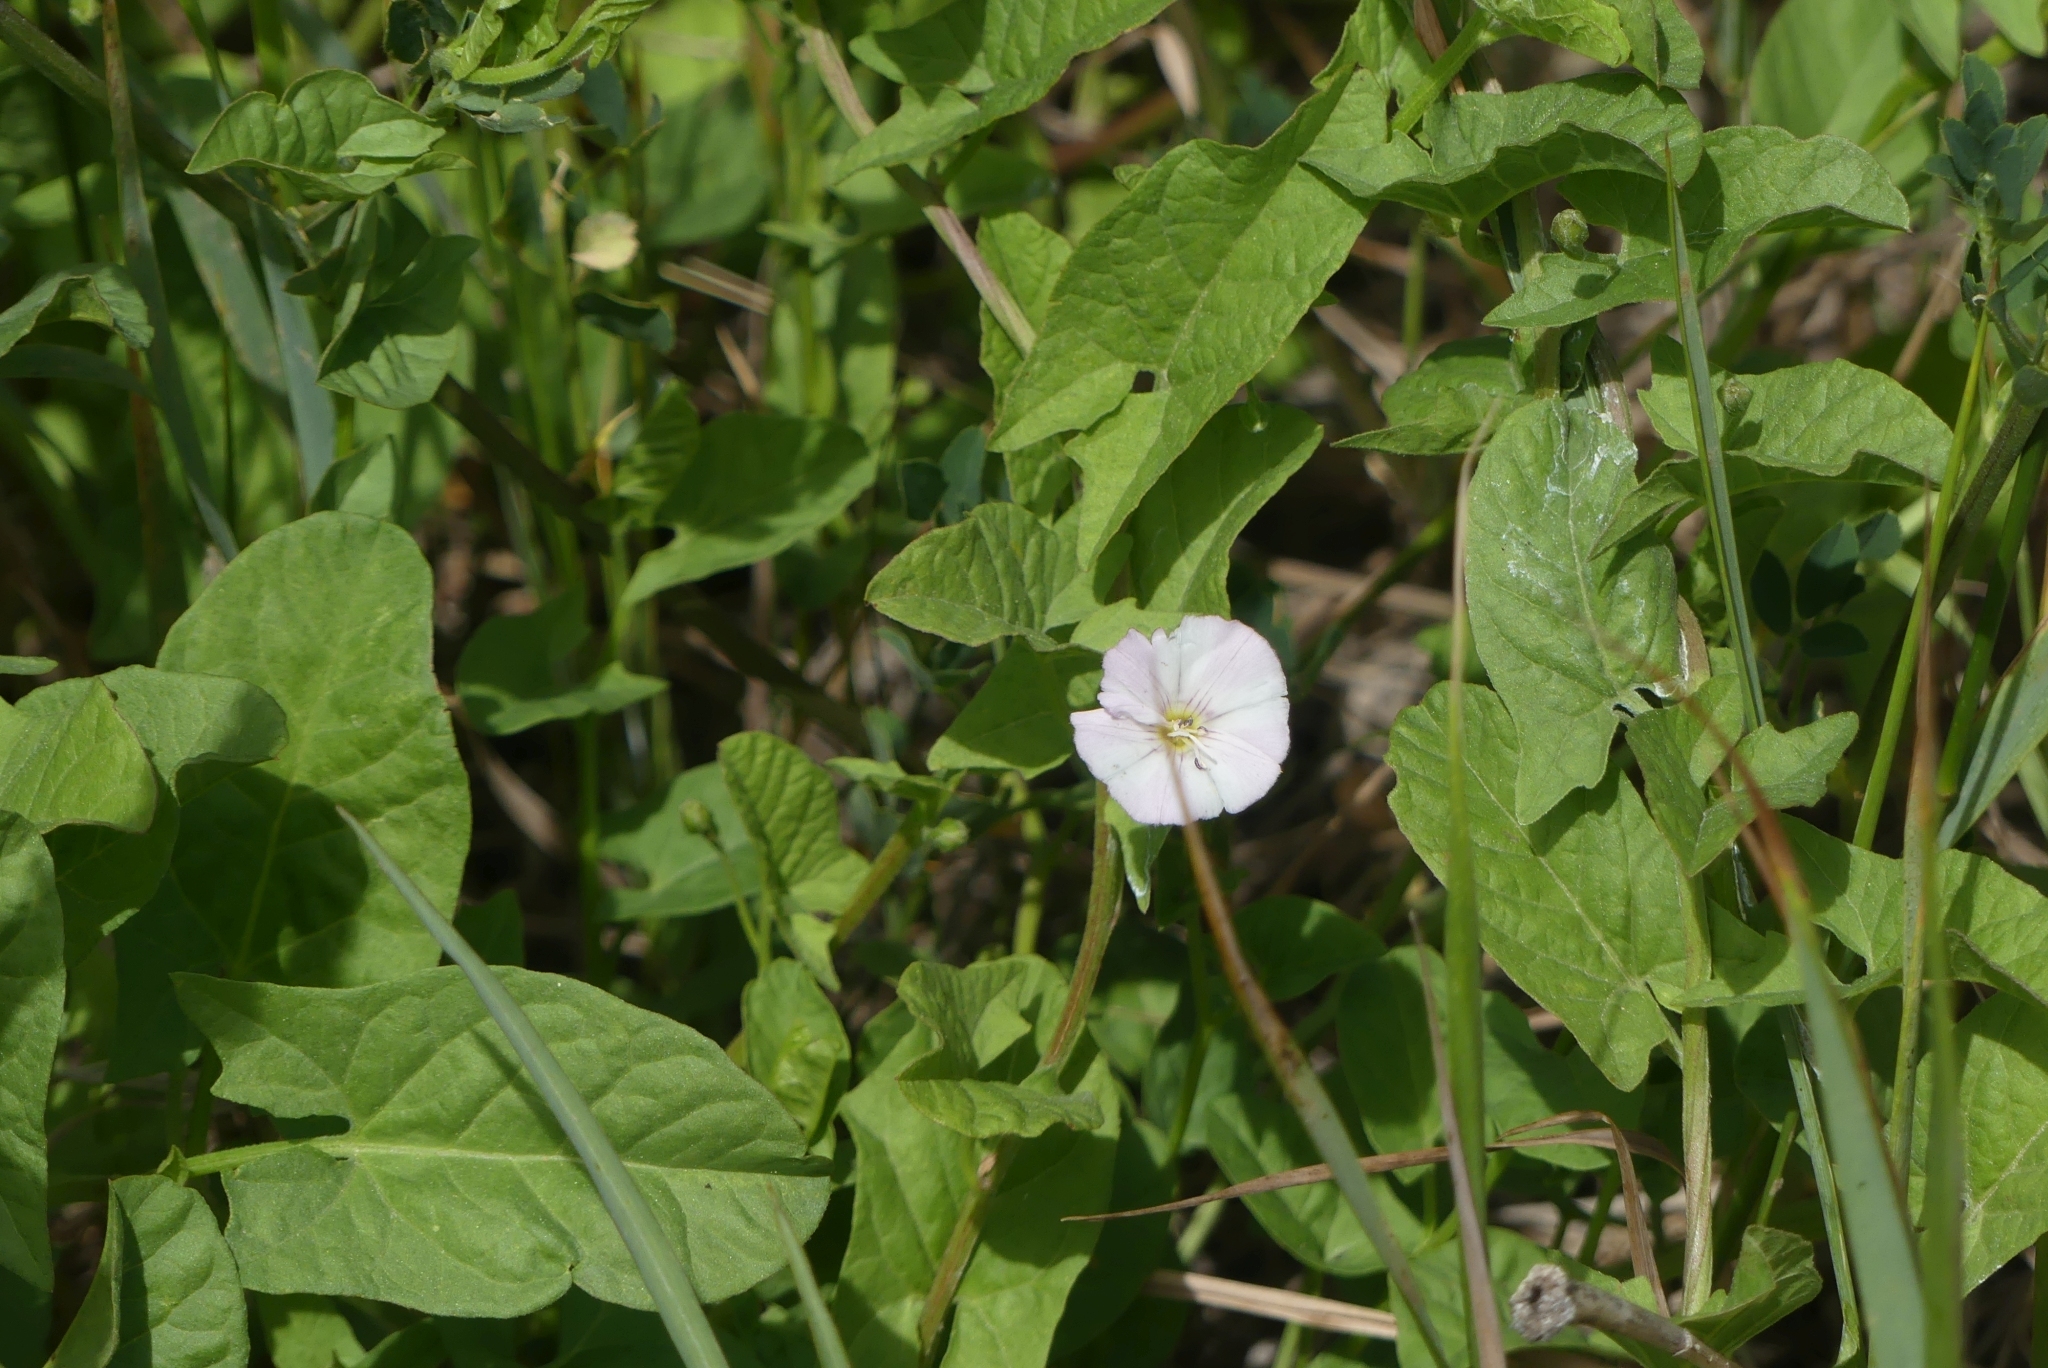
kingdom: Plantae
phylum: Tracheophyta
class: Magnoliopsida
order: Solanales
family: Convolvulaceae
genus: Convolvulus
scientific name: Convolvulus arvensis
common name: Field bindweed
